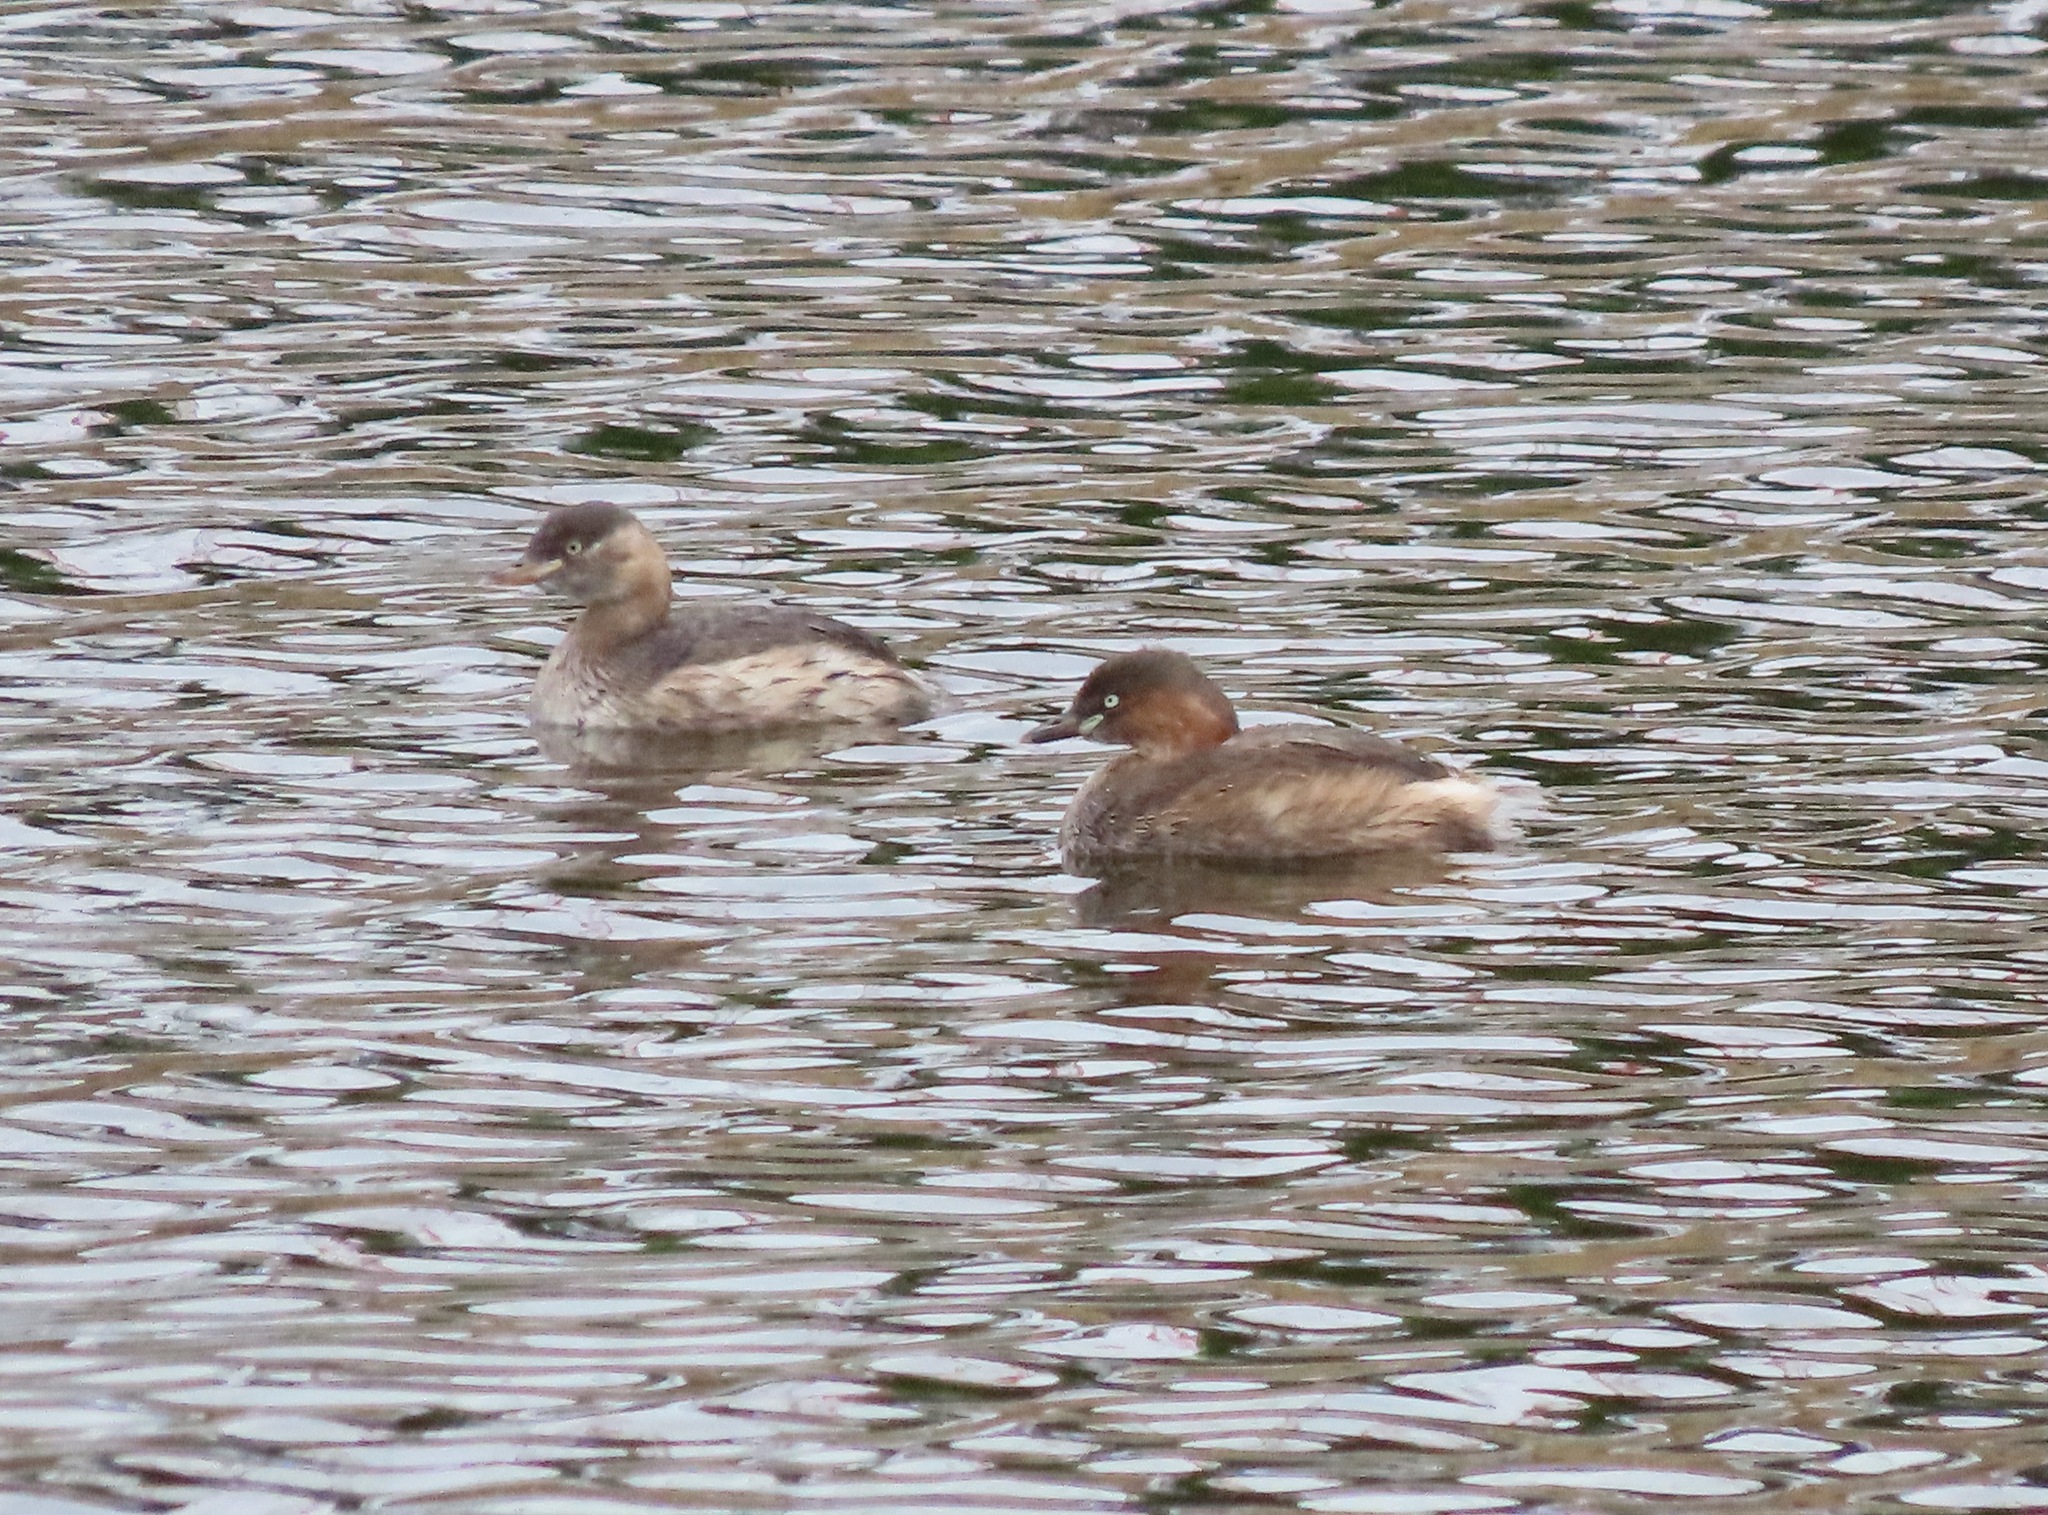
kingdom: Animalia
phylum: Chordata
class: Aves
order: Podicipediformes
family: Podicipedidae
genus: Tachybaptus
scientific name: Tachybaptus ruficollis
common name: Little grebe
